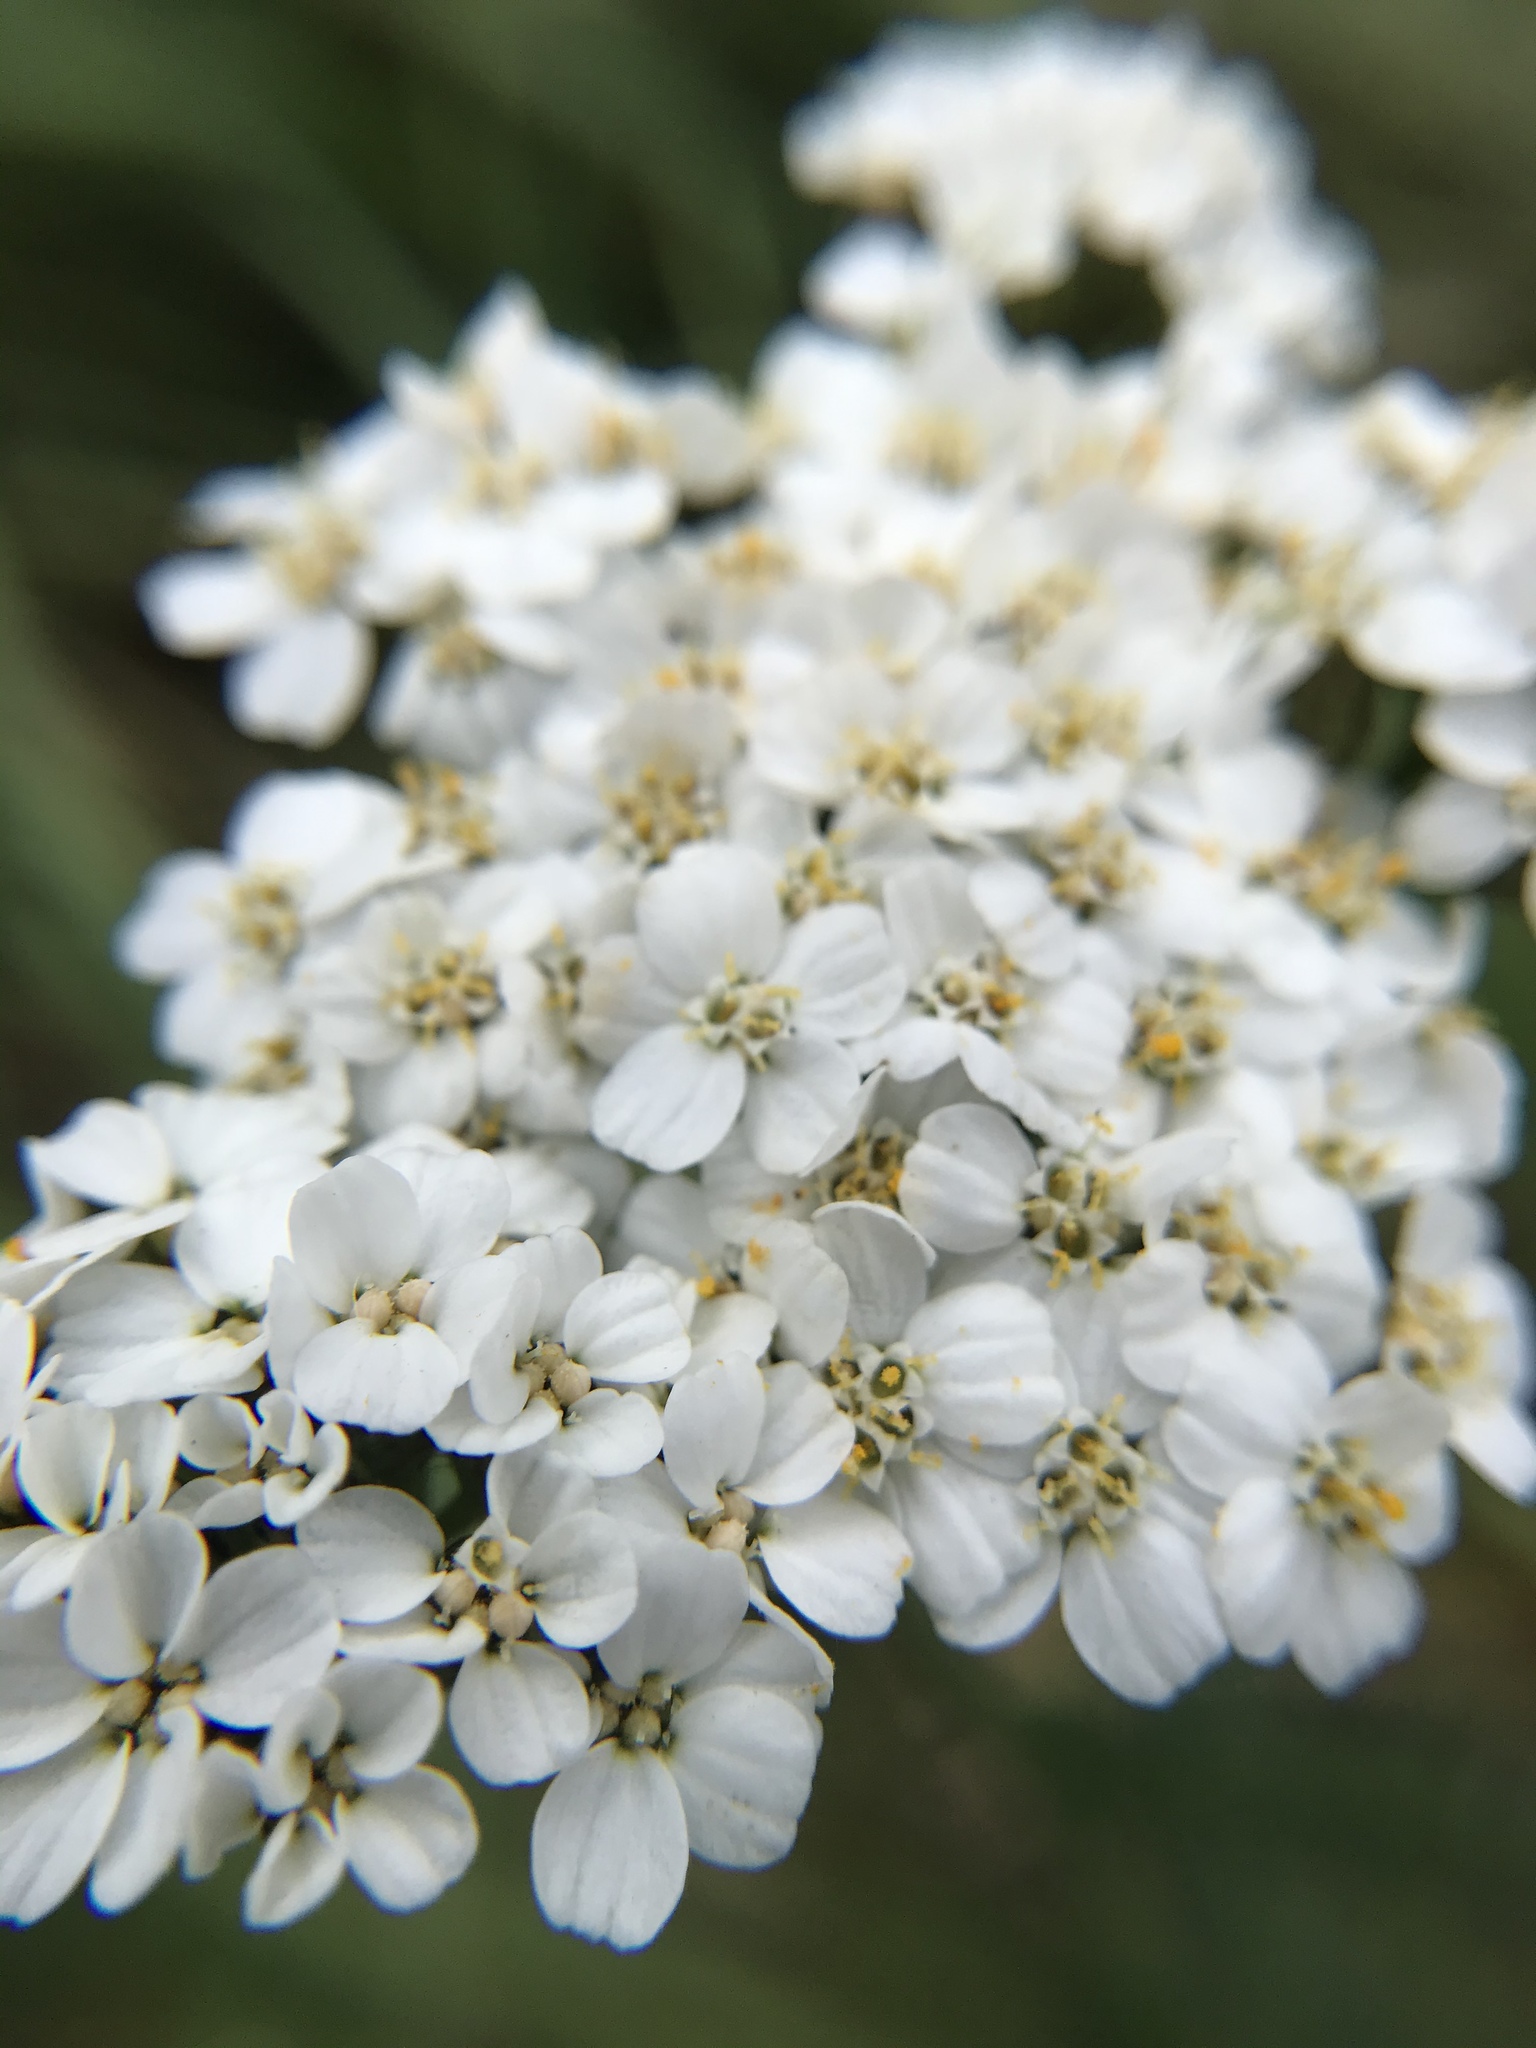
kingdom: Plantae
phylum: Tracheophyta
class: Magnoliopsida
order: Asterales
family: Asteraceae
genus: Achillea
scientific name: Achillea millefolium
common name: Yarrow
